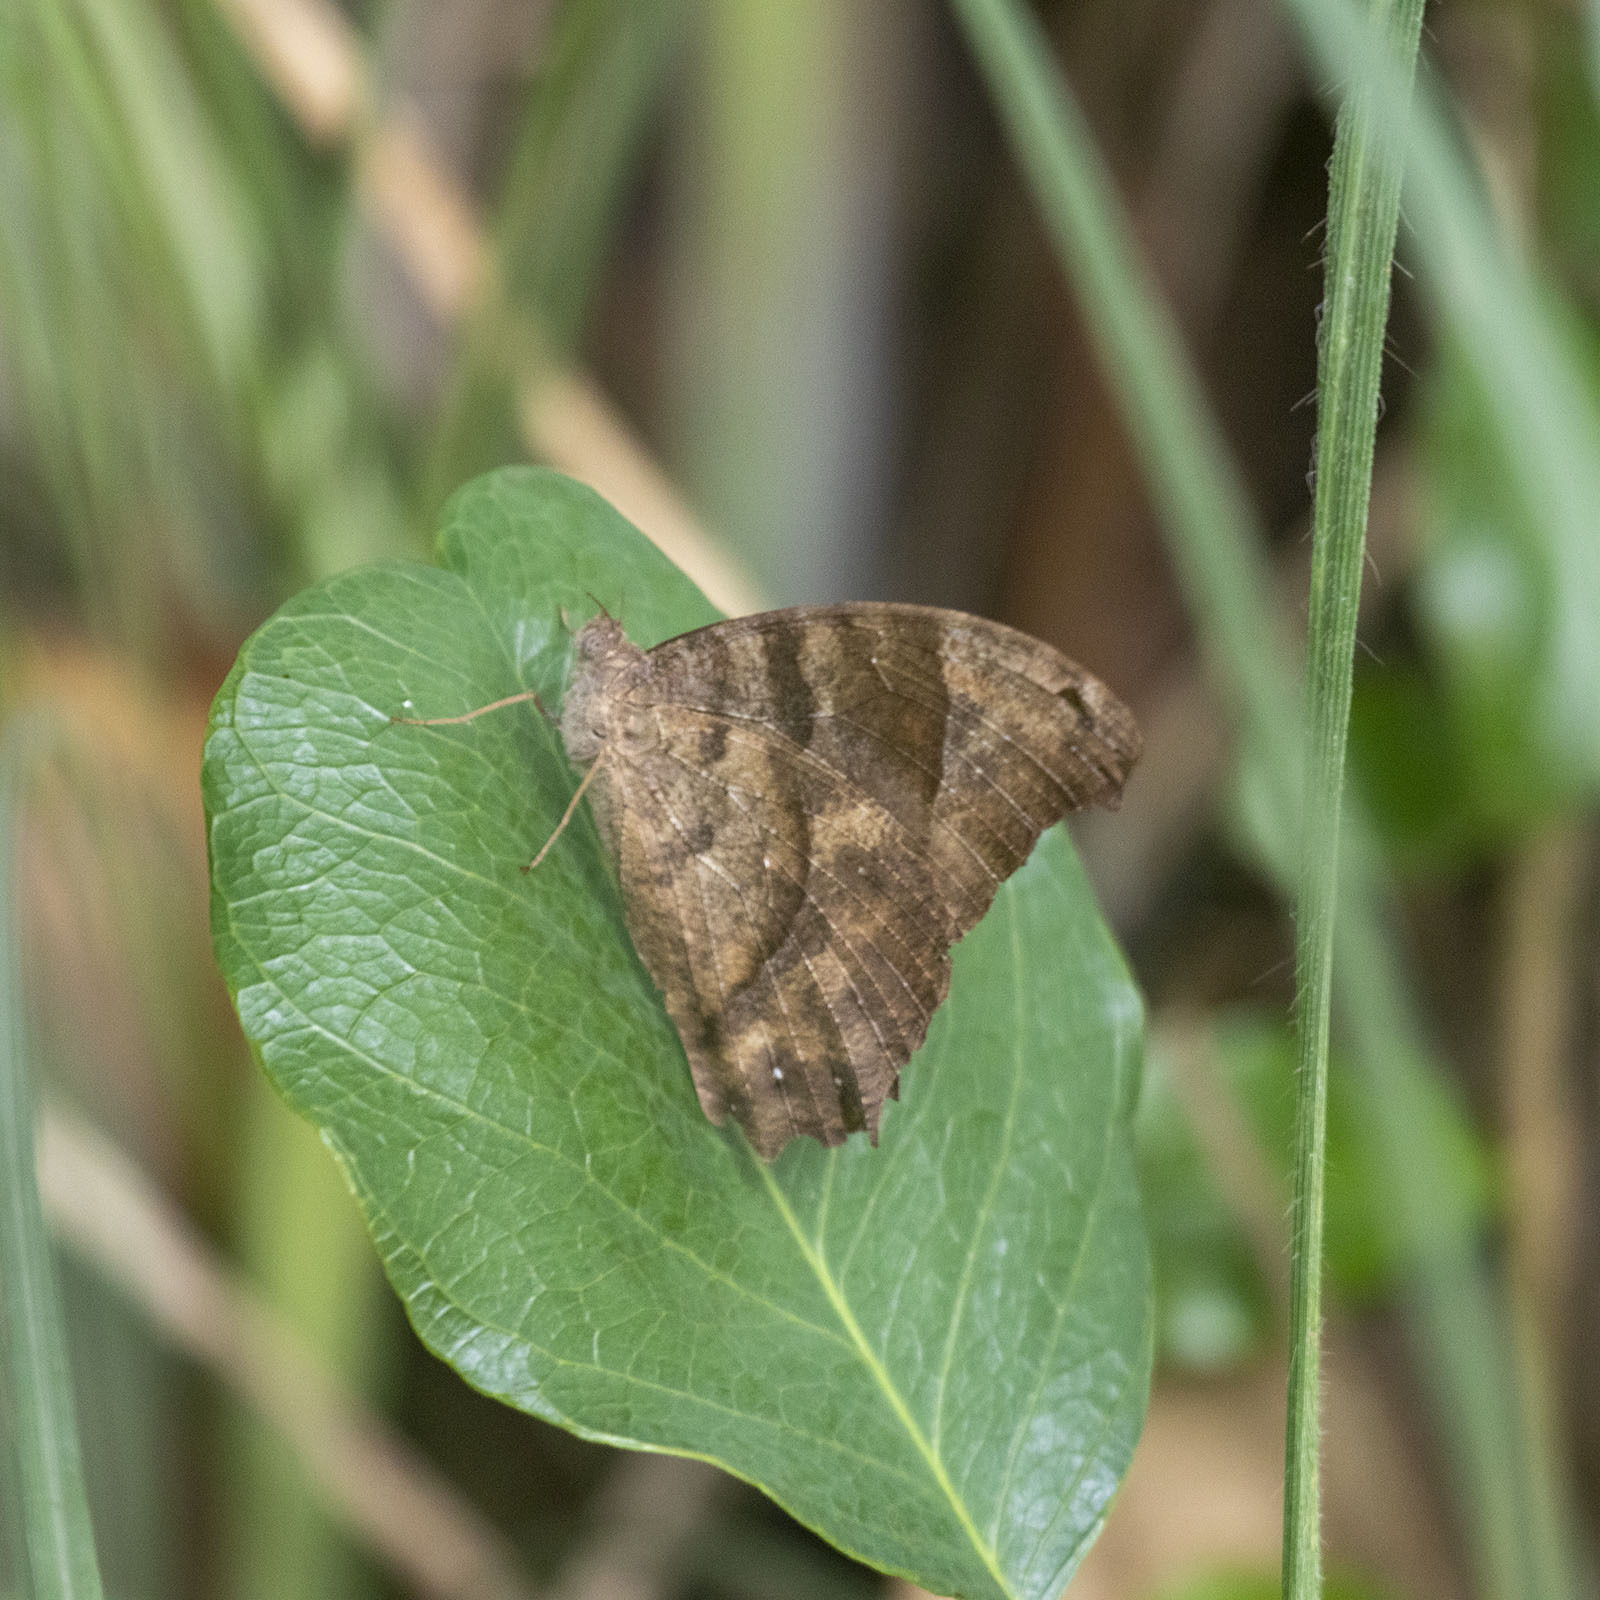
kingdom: Animalia
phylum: Arthropoda
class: Insecta
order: Lepidoptera
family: Nymphalidae
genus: Melanitis
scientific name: Melanitis leda
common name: Twilight brown
